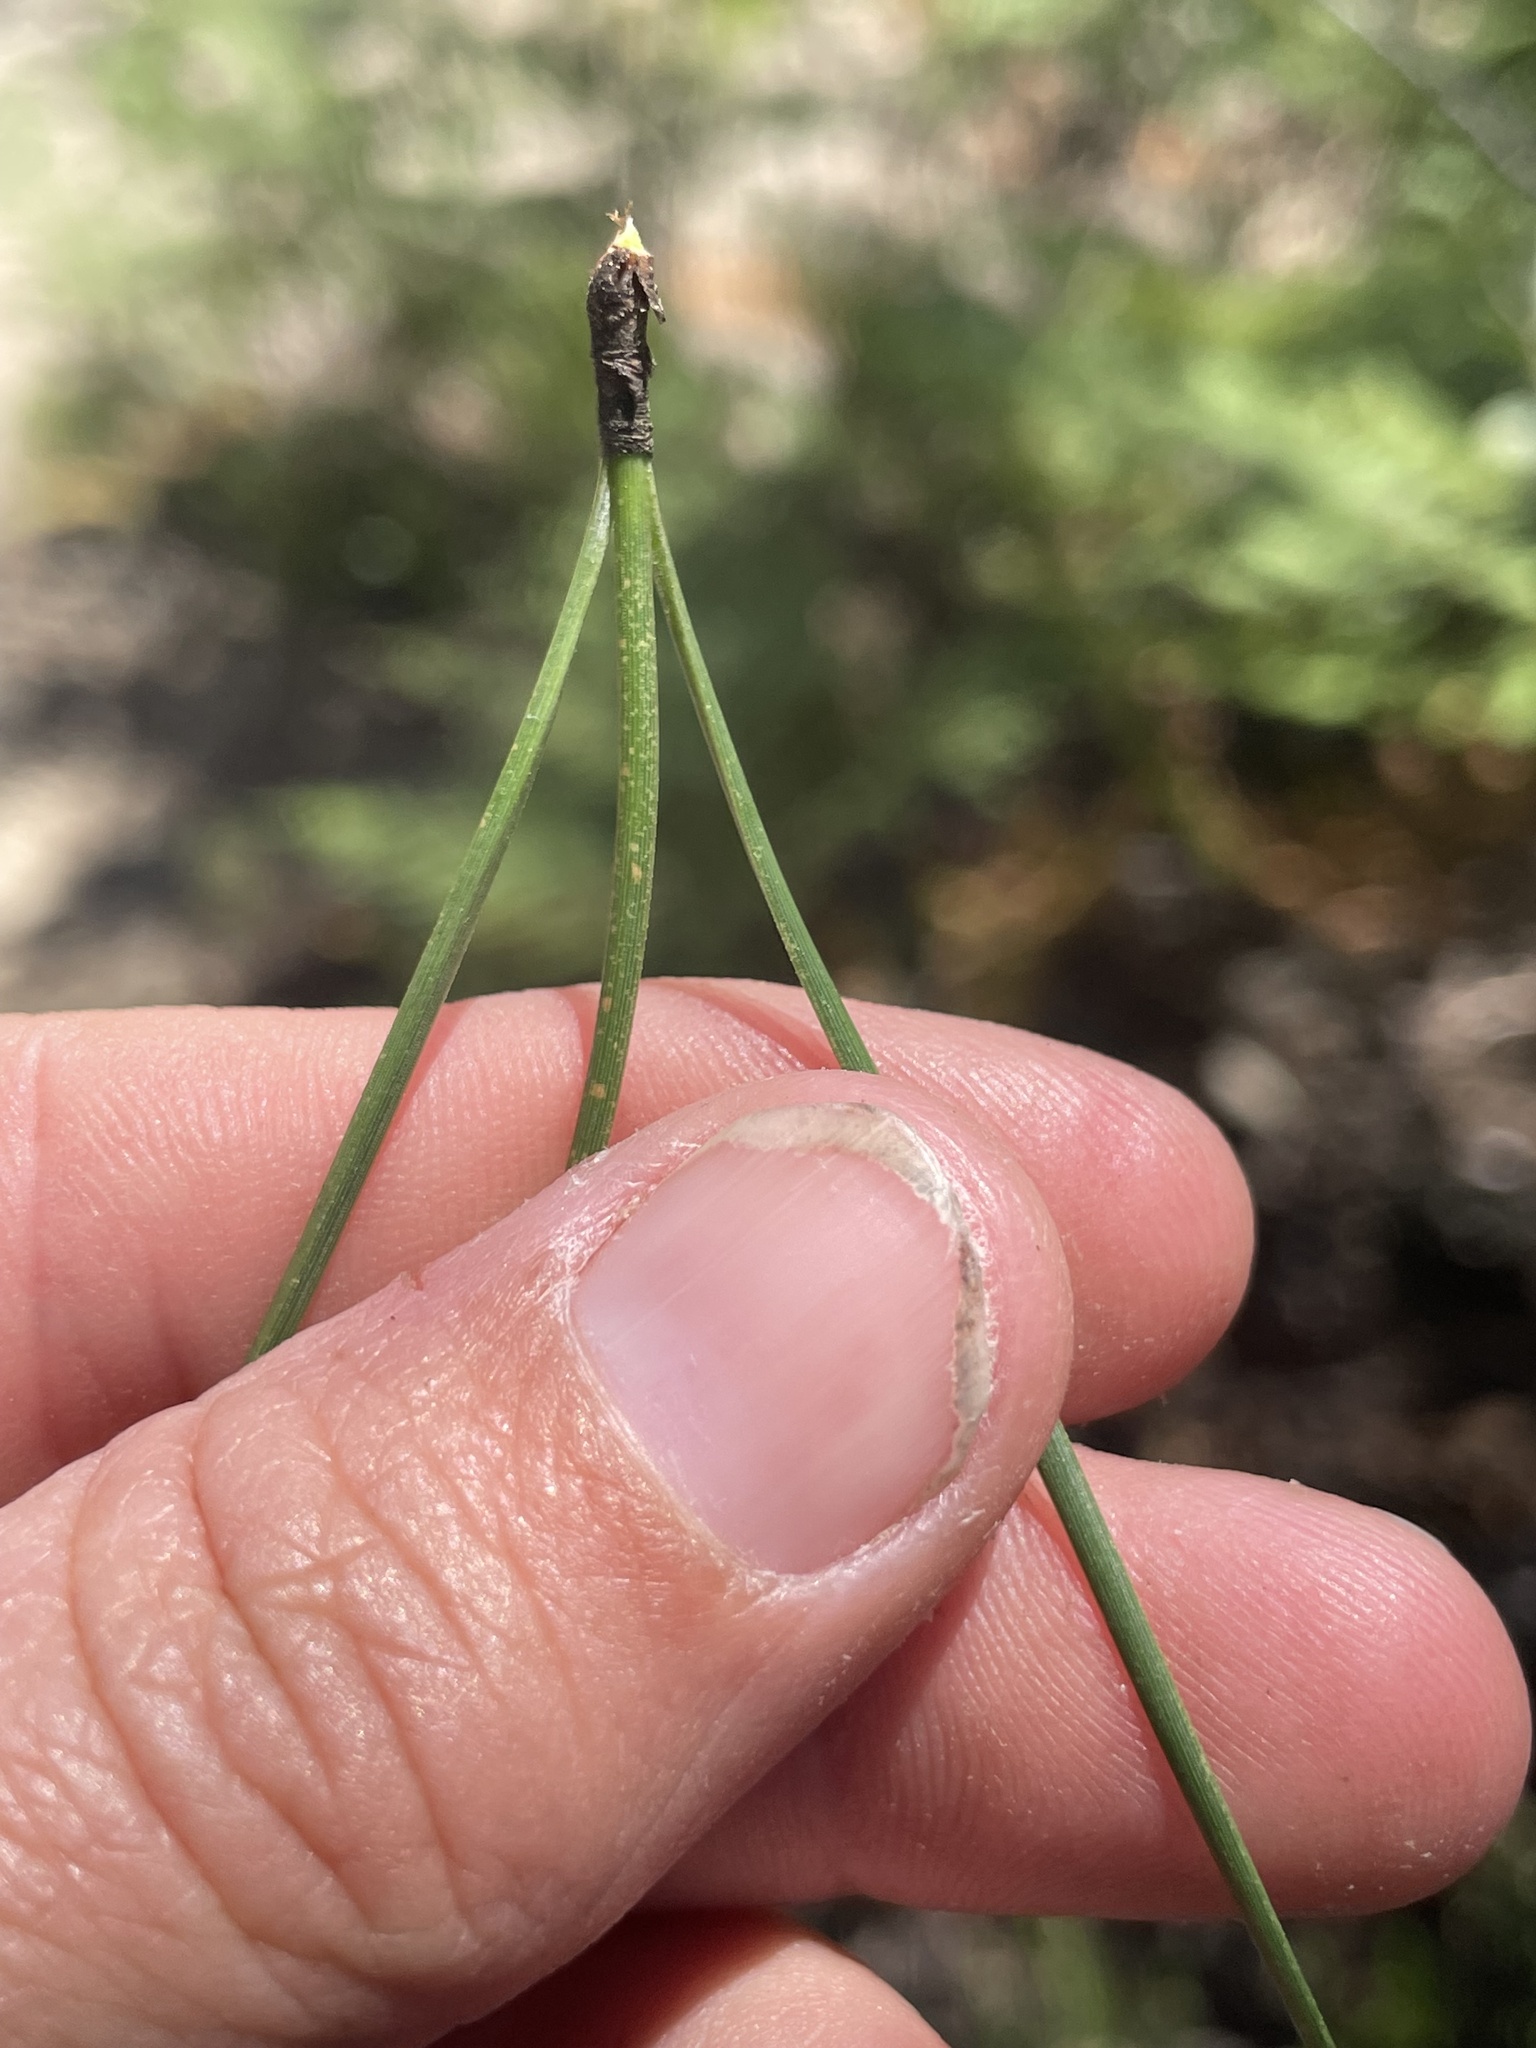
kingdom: Plantae
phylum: Tracheophyta
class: Pinopsida
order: Pinales
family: Pinaceae
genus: Pinus
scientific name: Pinus attenuata
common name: Knobcone pine
